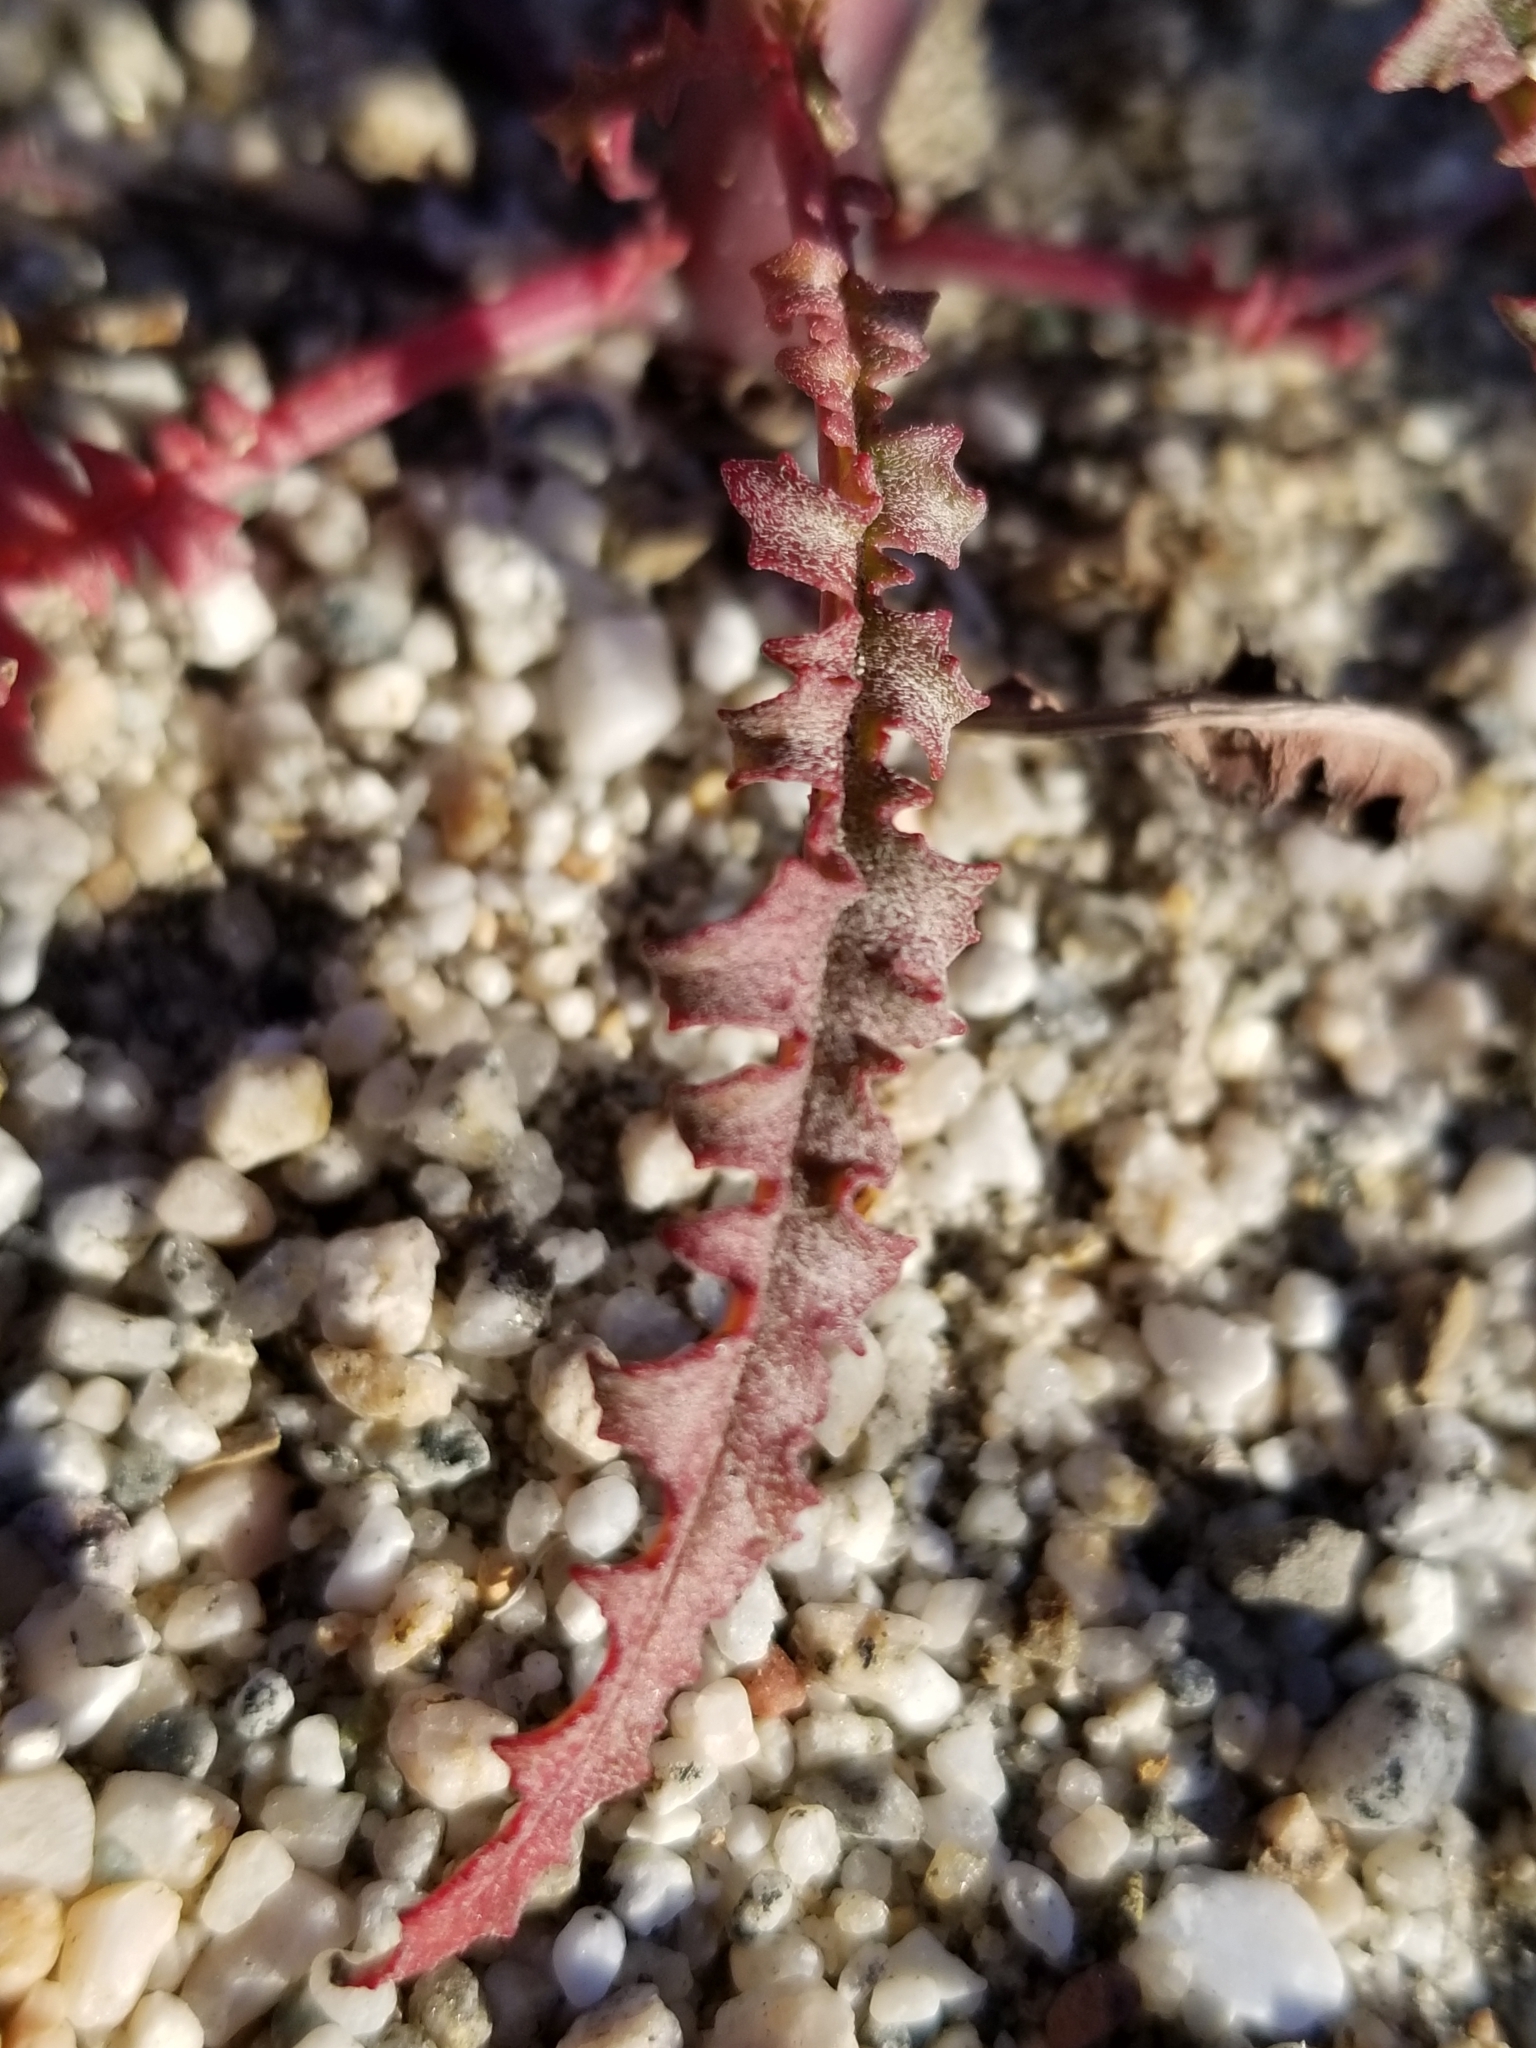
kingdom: Plantae
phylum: Tracheophyta
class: Magnoliopsida
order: Myrtales
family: Onagraceae
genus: Eulobus
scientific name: Eulobus californicus
